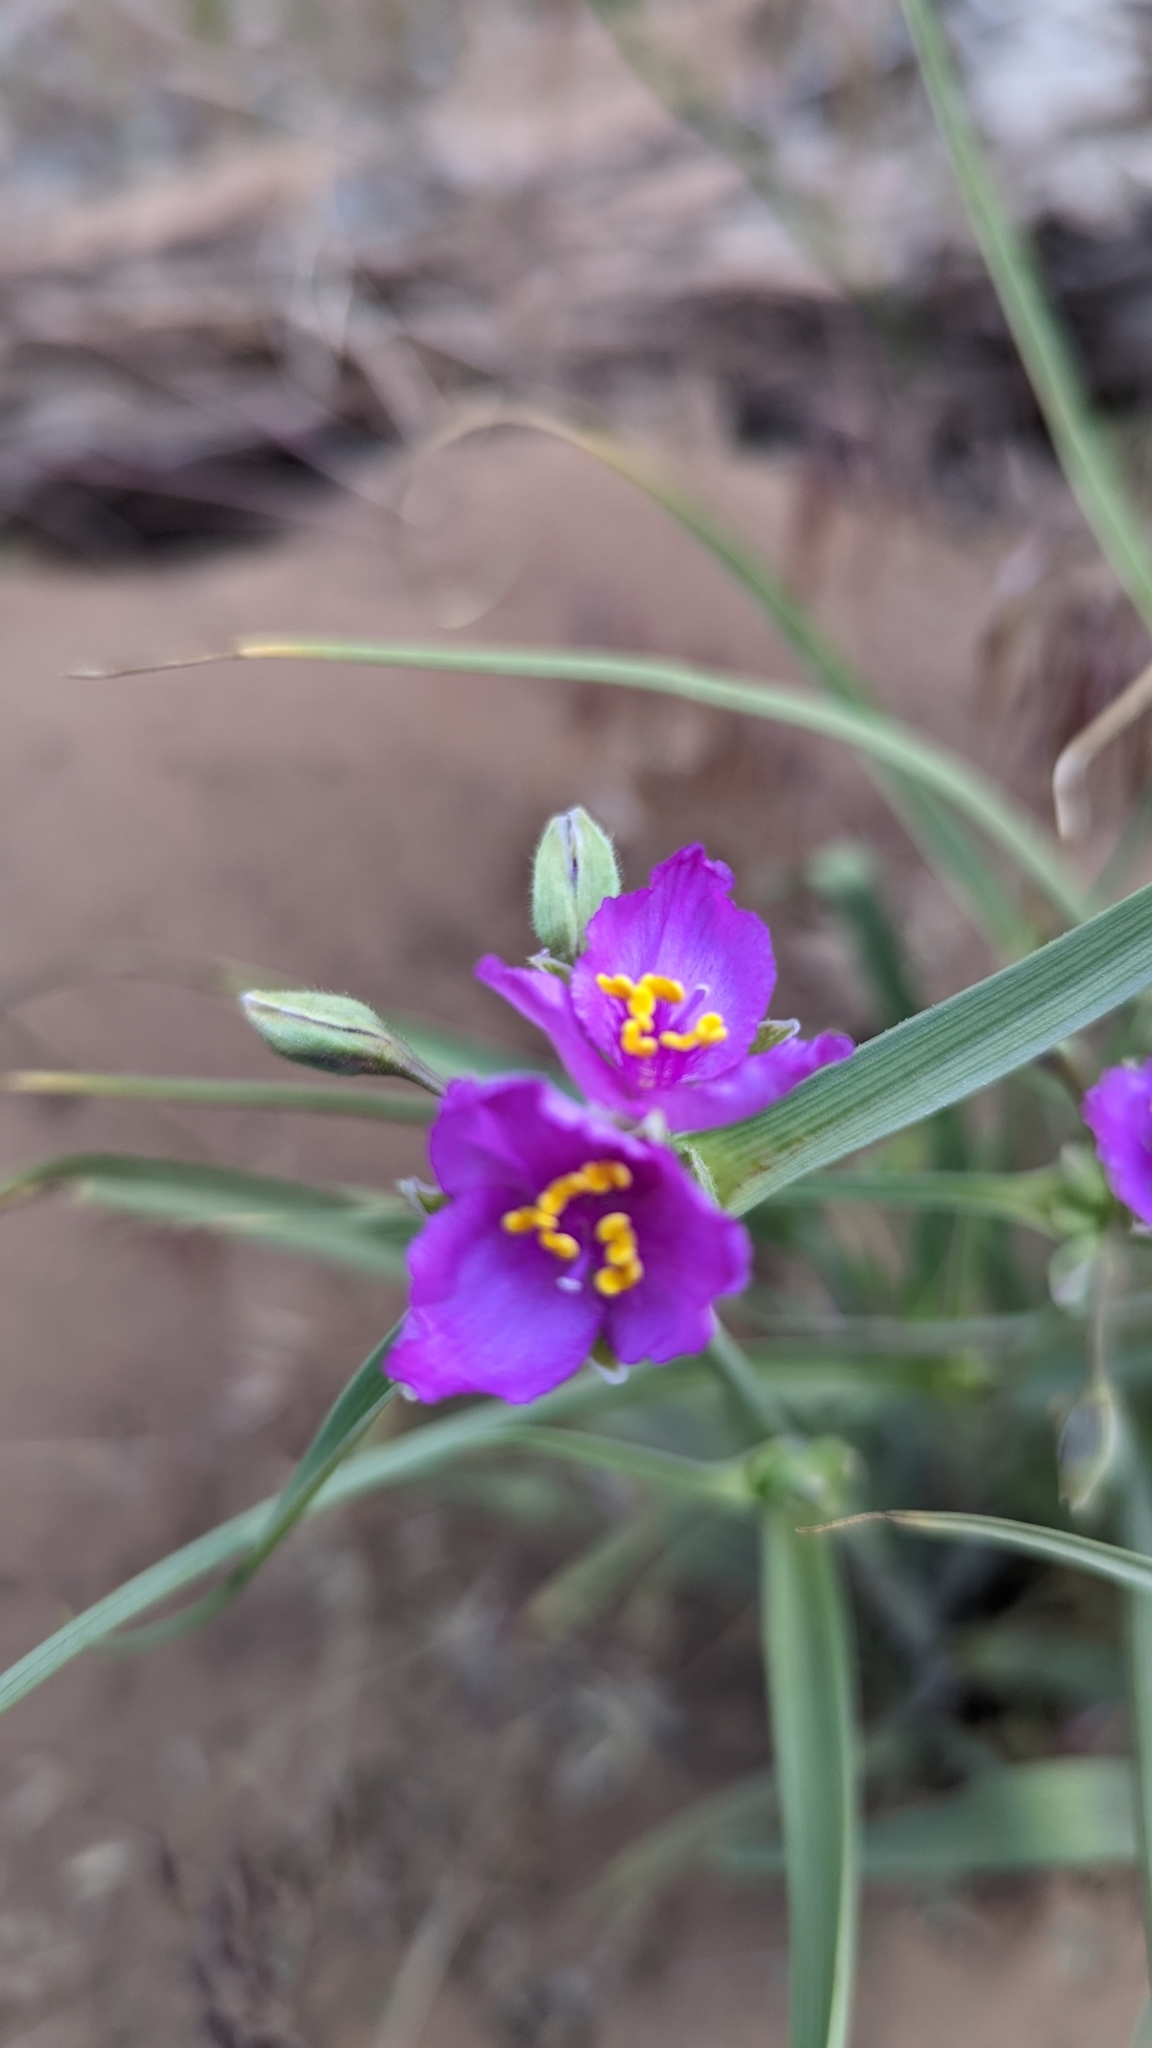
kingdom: Plantae
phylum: Tracheophyta
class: Liliopsida
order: Commelinales
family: Commelinaceae
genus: Tradescantia
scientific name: Tradescantia occidentalis
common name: Prairie spiderwort
